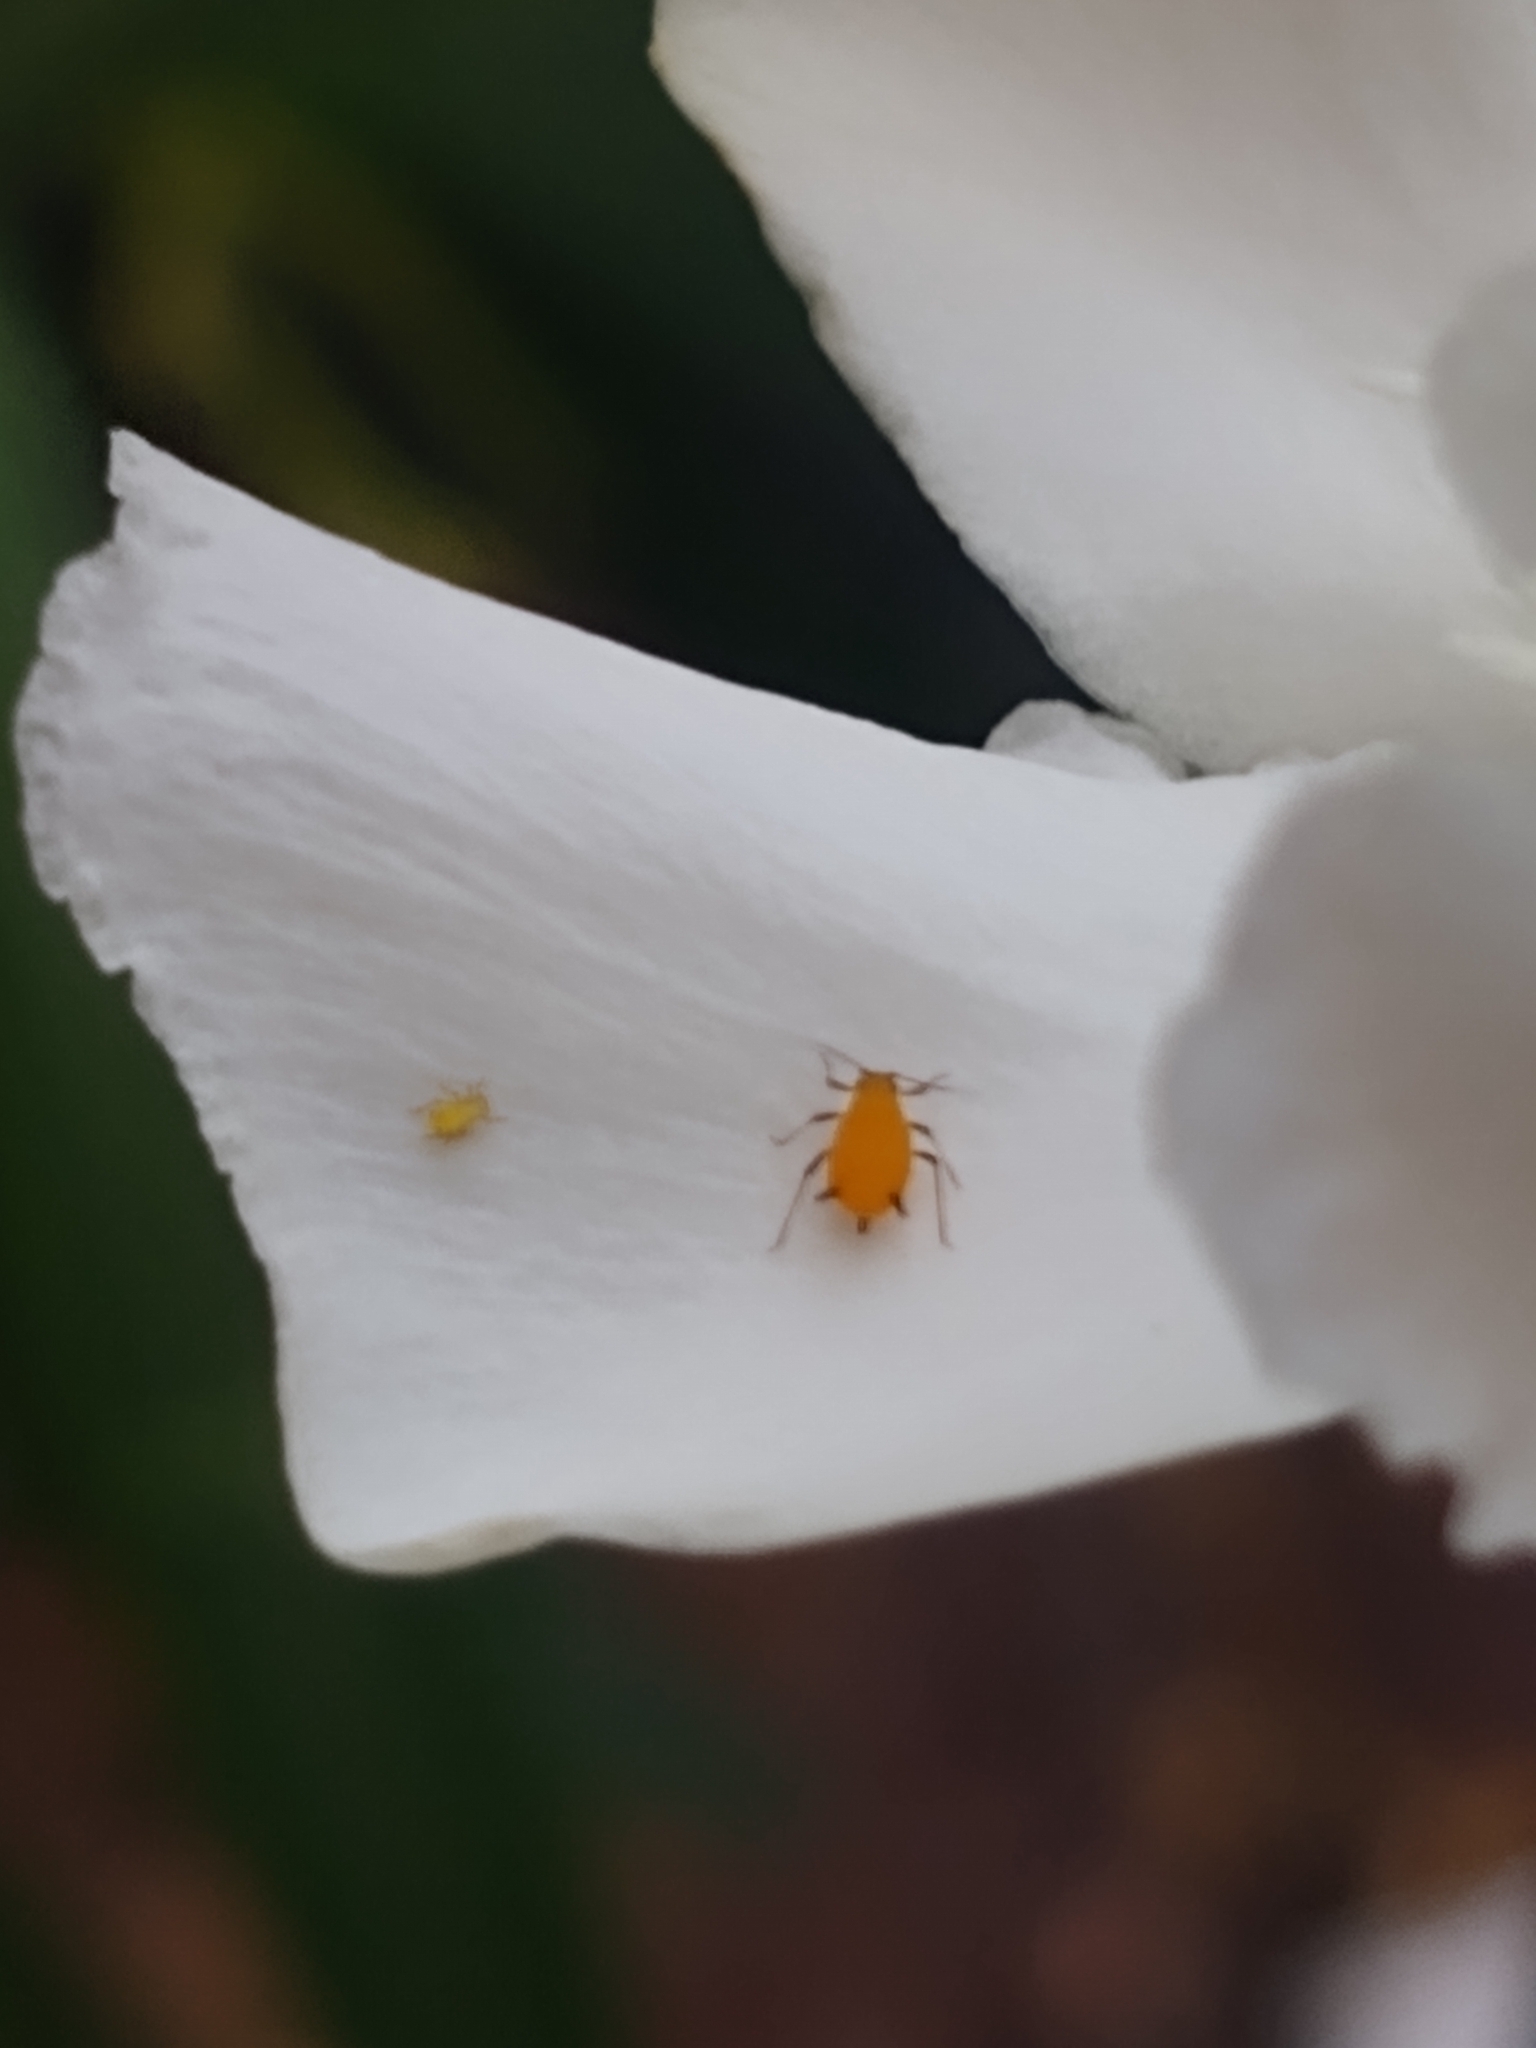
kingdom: Animalia
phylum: Arthropoda
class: Insecta
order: Hemiptera
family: Aphididae
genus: Aphis
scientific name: Aphis nerii
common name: Oleander aphid
